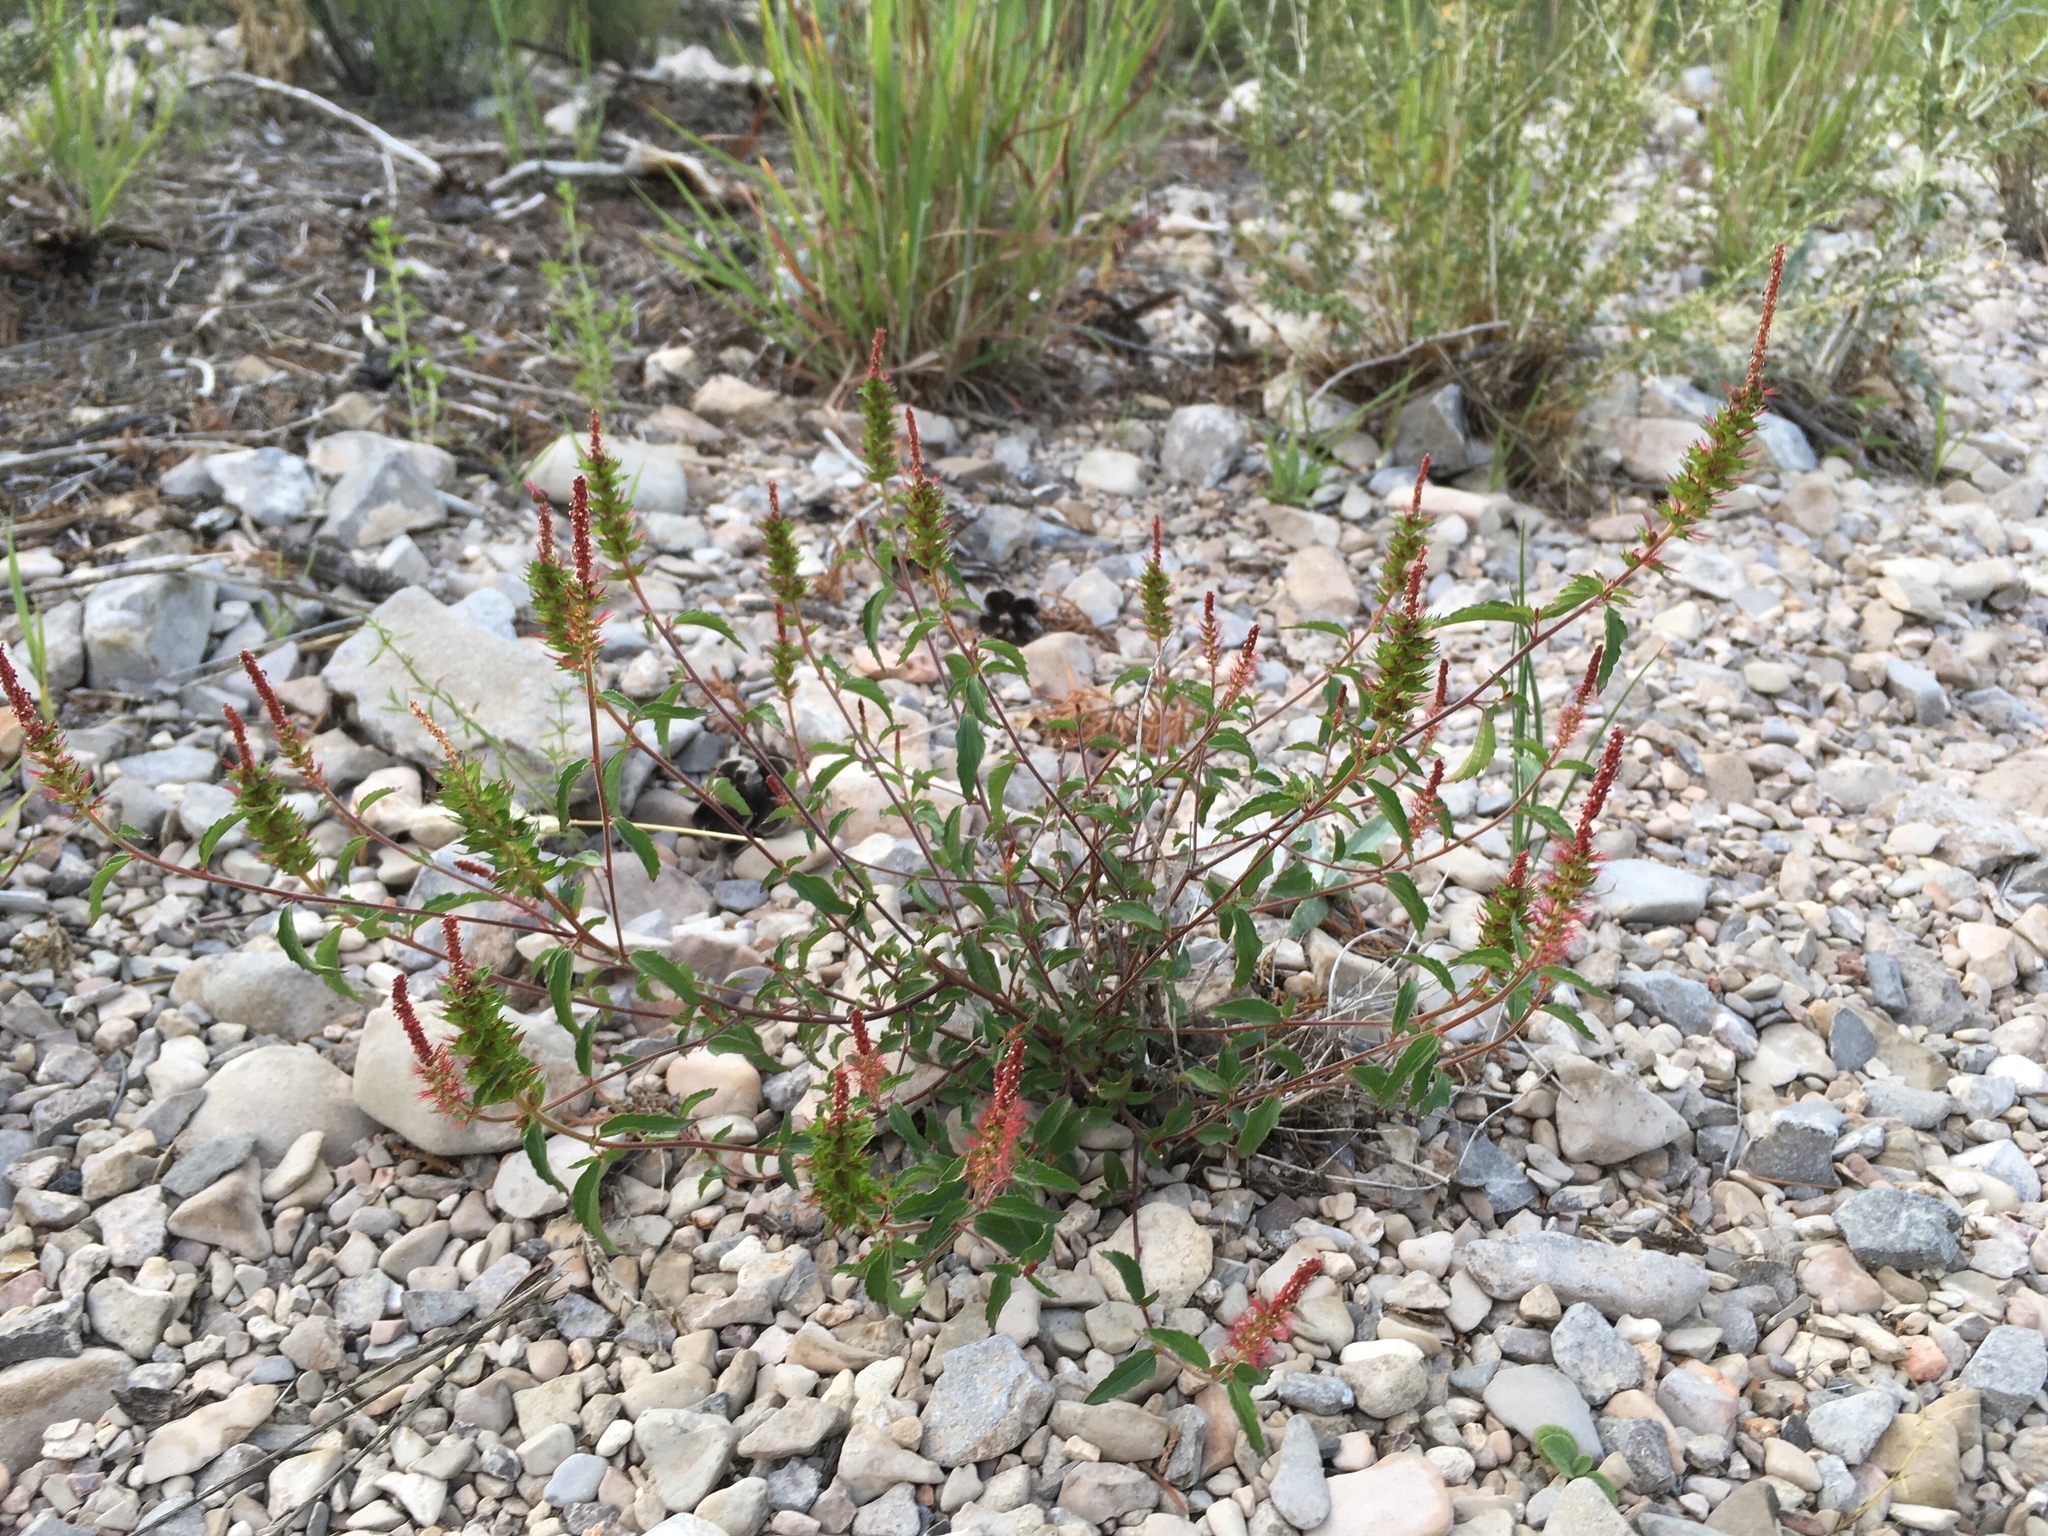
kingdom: Plantae
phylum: Tracheophyta
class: Magnoliopsida
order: Malpighiales
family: Euphorbiaceae
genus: Acalypha
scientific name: Acalypha phleoides
